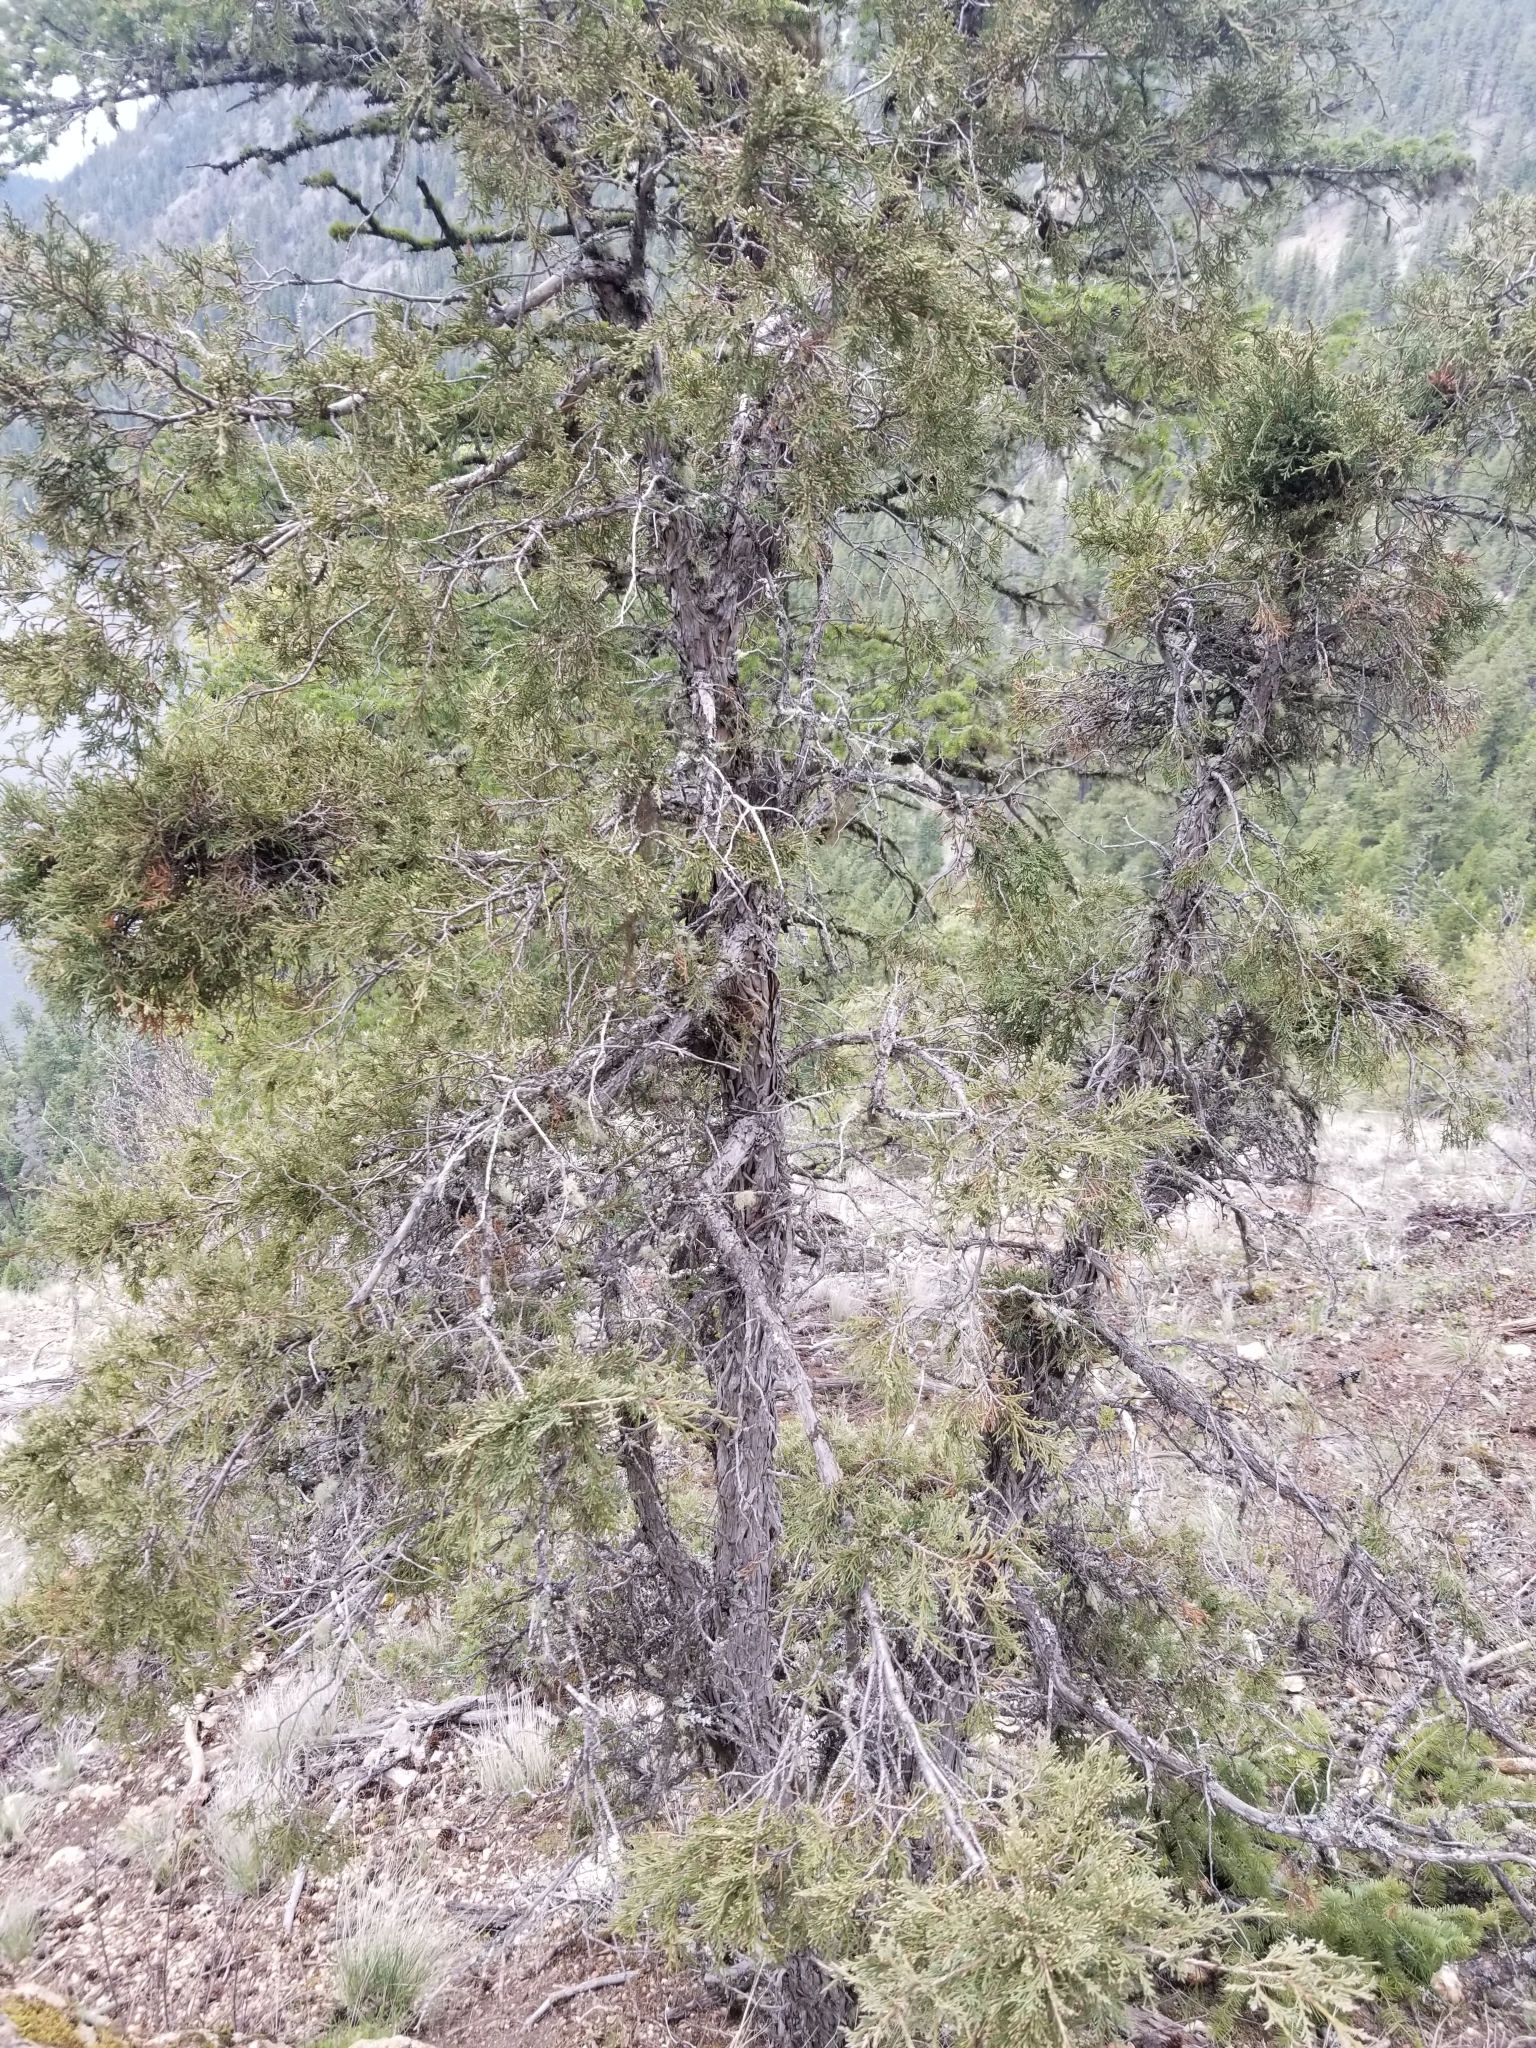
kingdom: Plantae
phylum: Tracheophyta
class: Pinopsida
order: Pinales
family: Cupressaceae
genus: Juniperus
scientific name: Juniperus scopulorum
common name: Rocky mountain juniper
